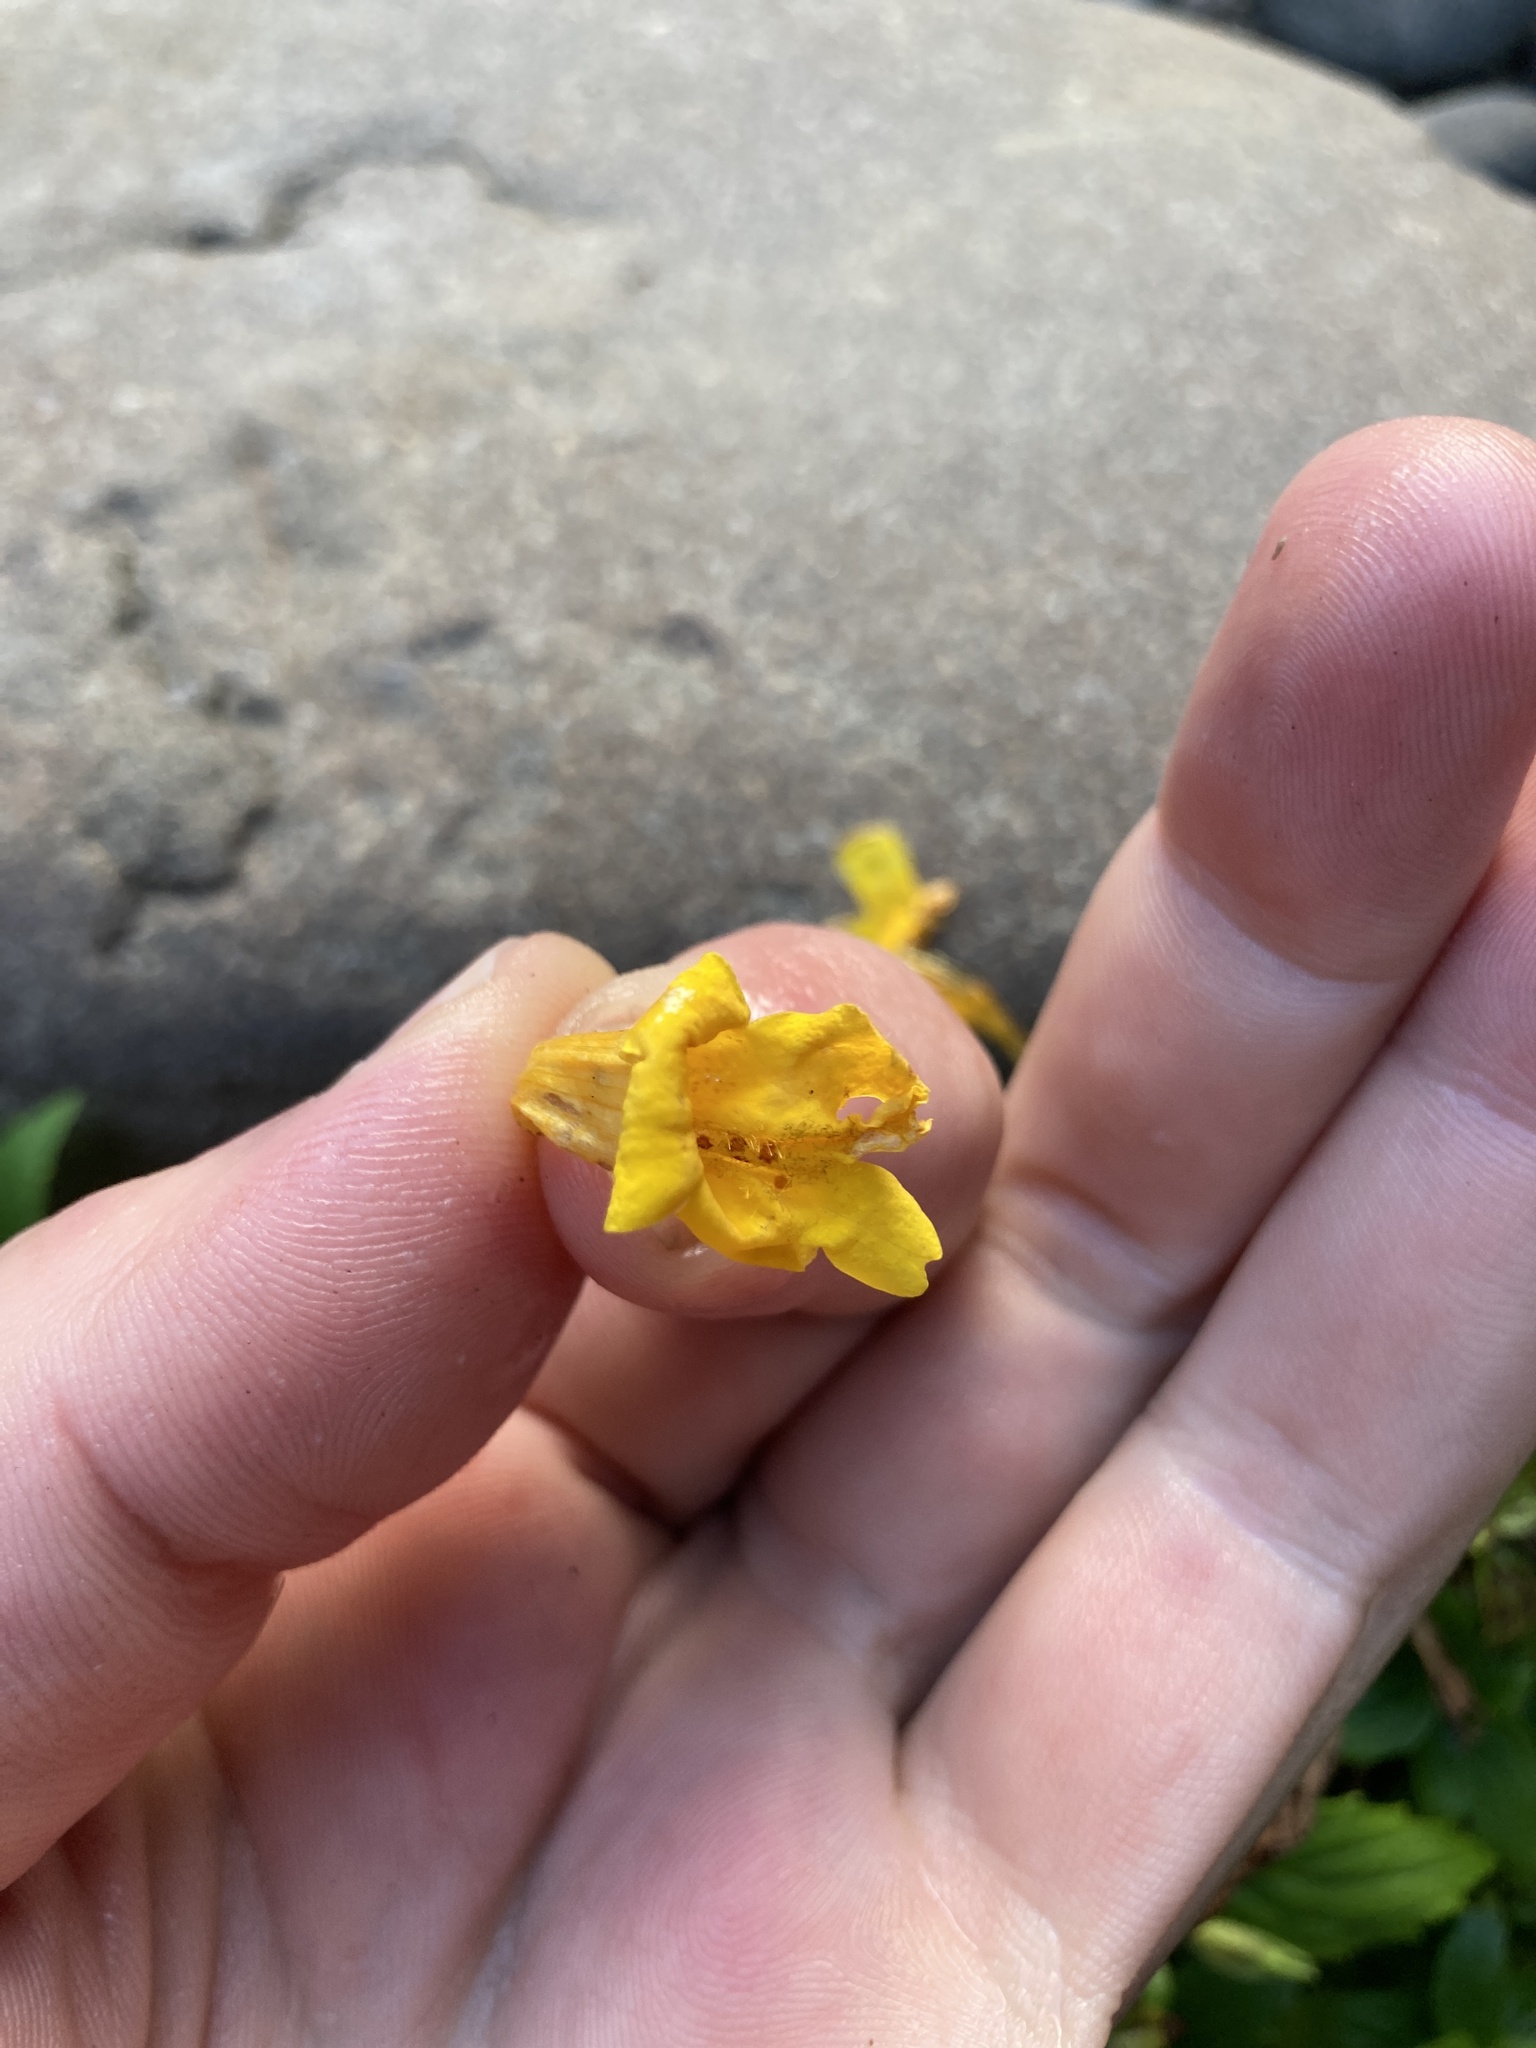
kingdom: Plantae
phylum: Tracheophyta
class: Magnoliopsida
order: Lamiales
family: Phrymaceae
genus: Erythranthe
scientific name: Erythranthe dentata
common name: Coastal monkeyflower
